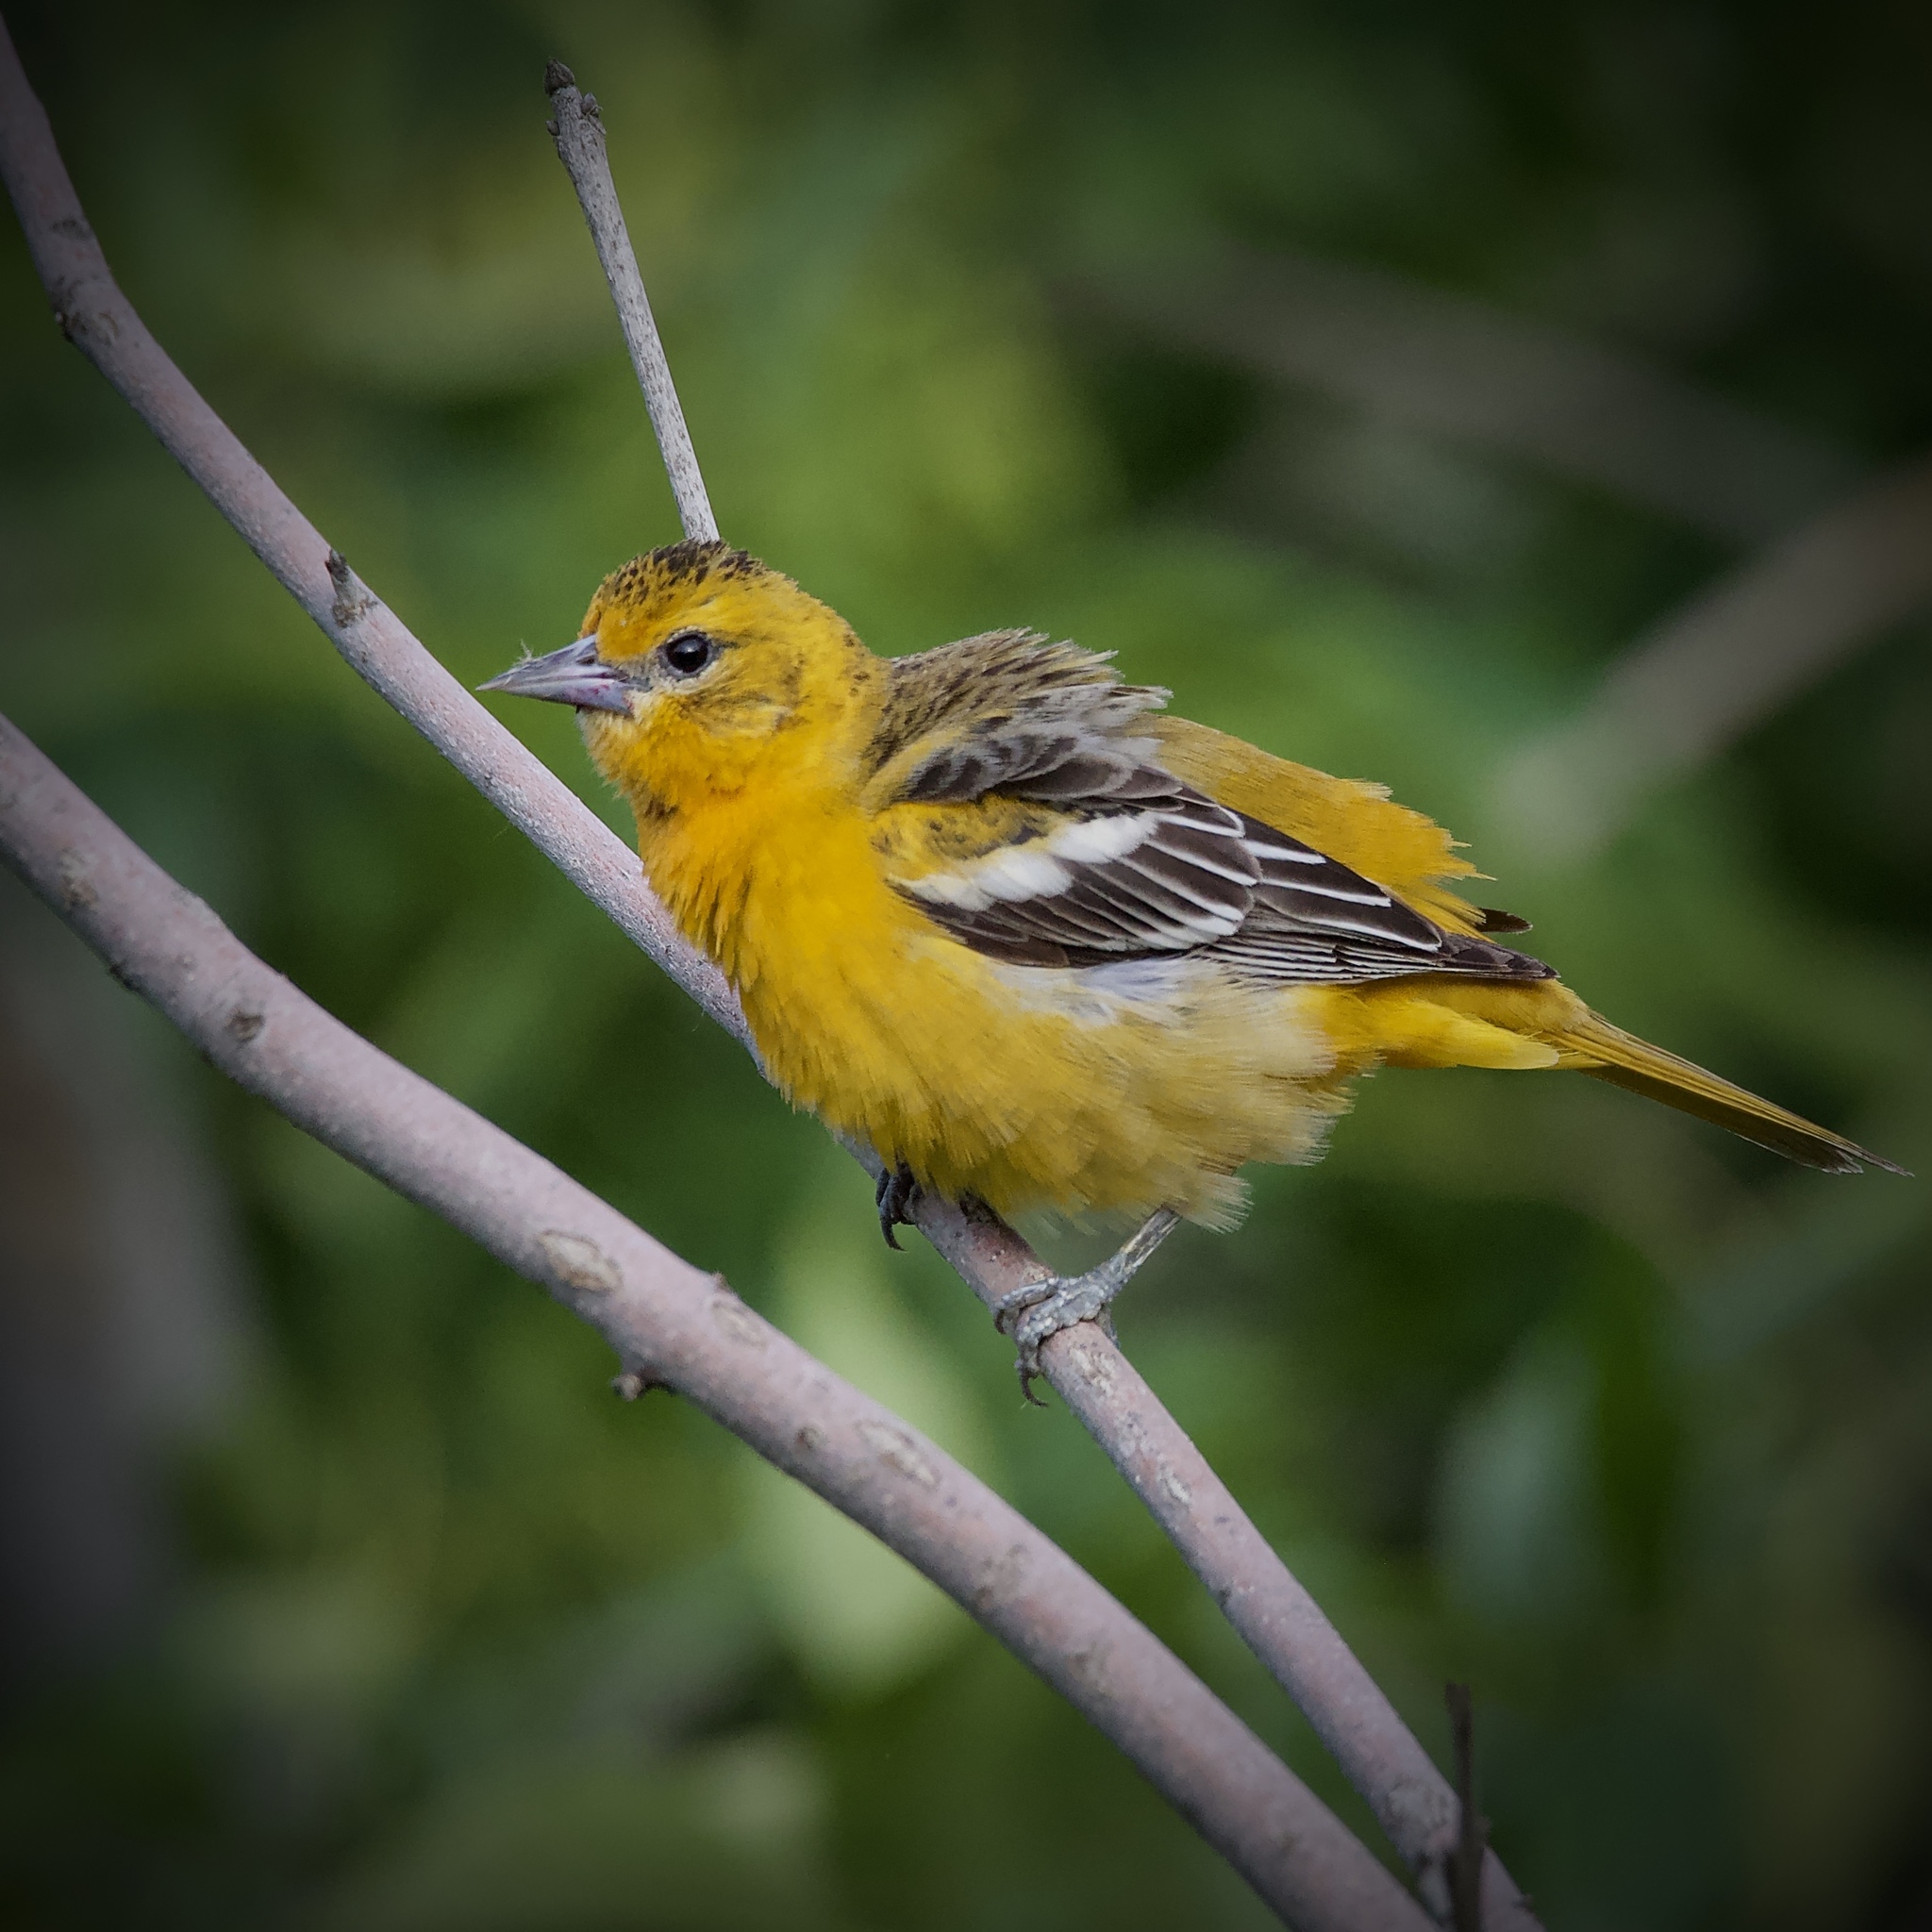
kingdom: Animalia
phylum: Chordata
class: Aves
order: Passeriformes
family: Icteridae
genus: Icterus
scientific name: Icterus galbula
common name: Baltimore oriole
